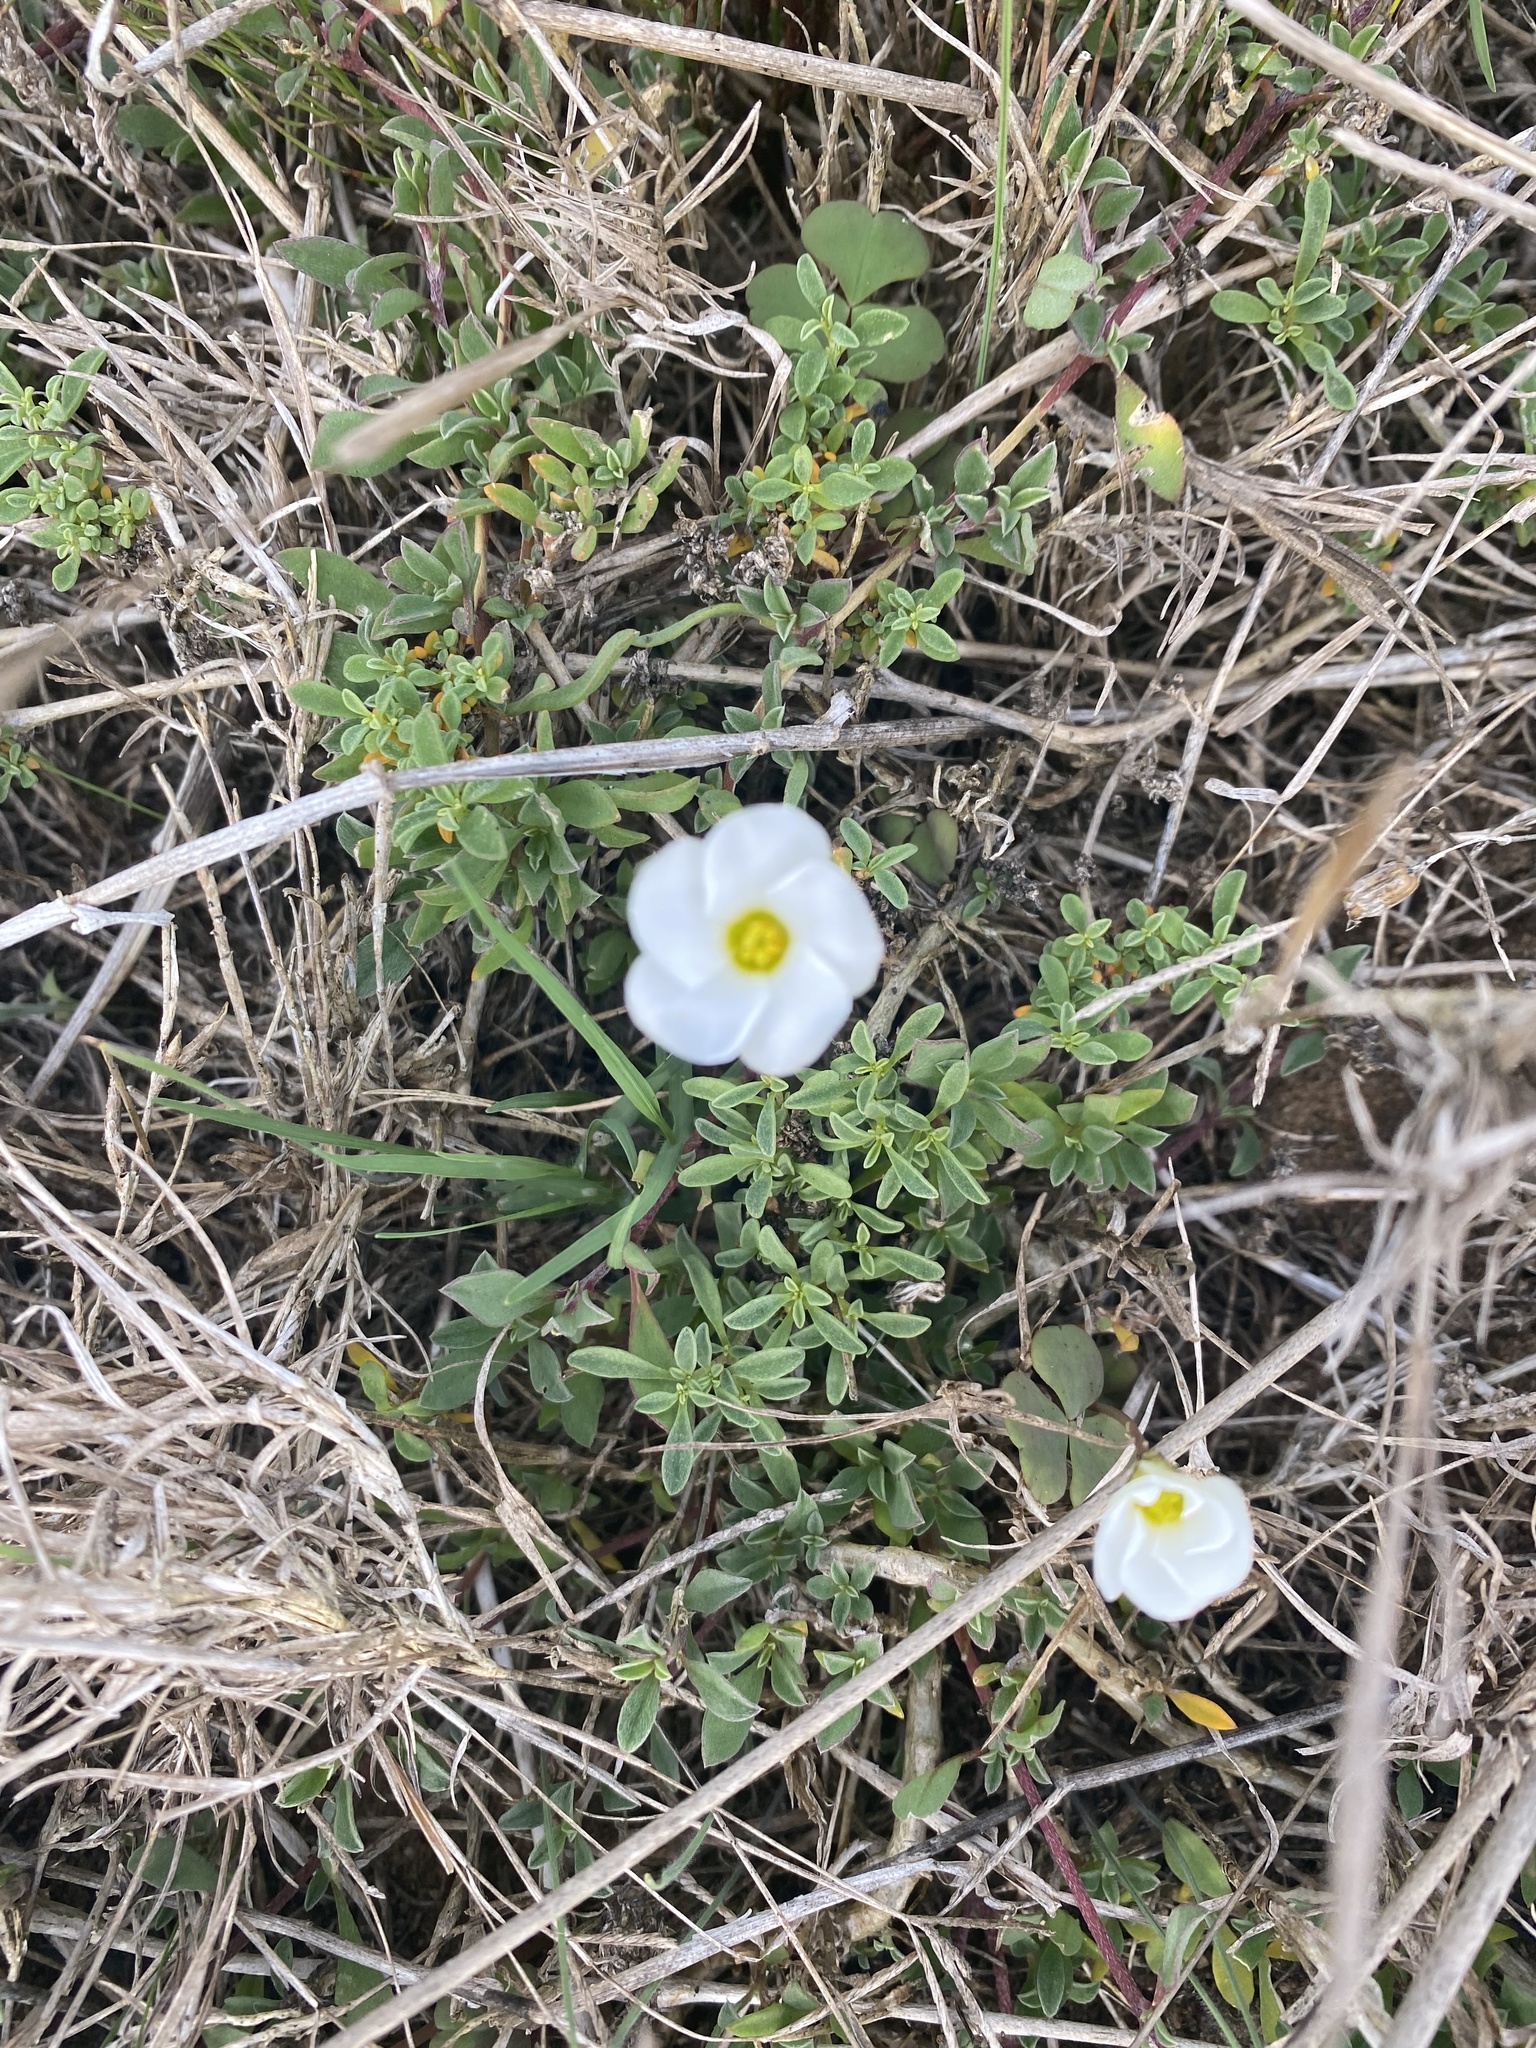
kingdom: Plantae
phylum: Tracheophyta
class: Magnoliopsida
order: Oxalidales
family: Oxalidaceae
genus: Oxalis
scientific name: Oxalis depressa
